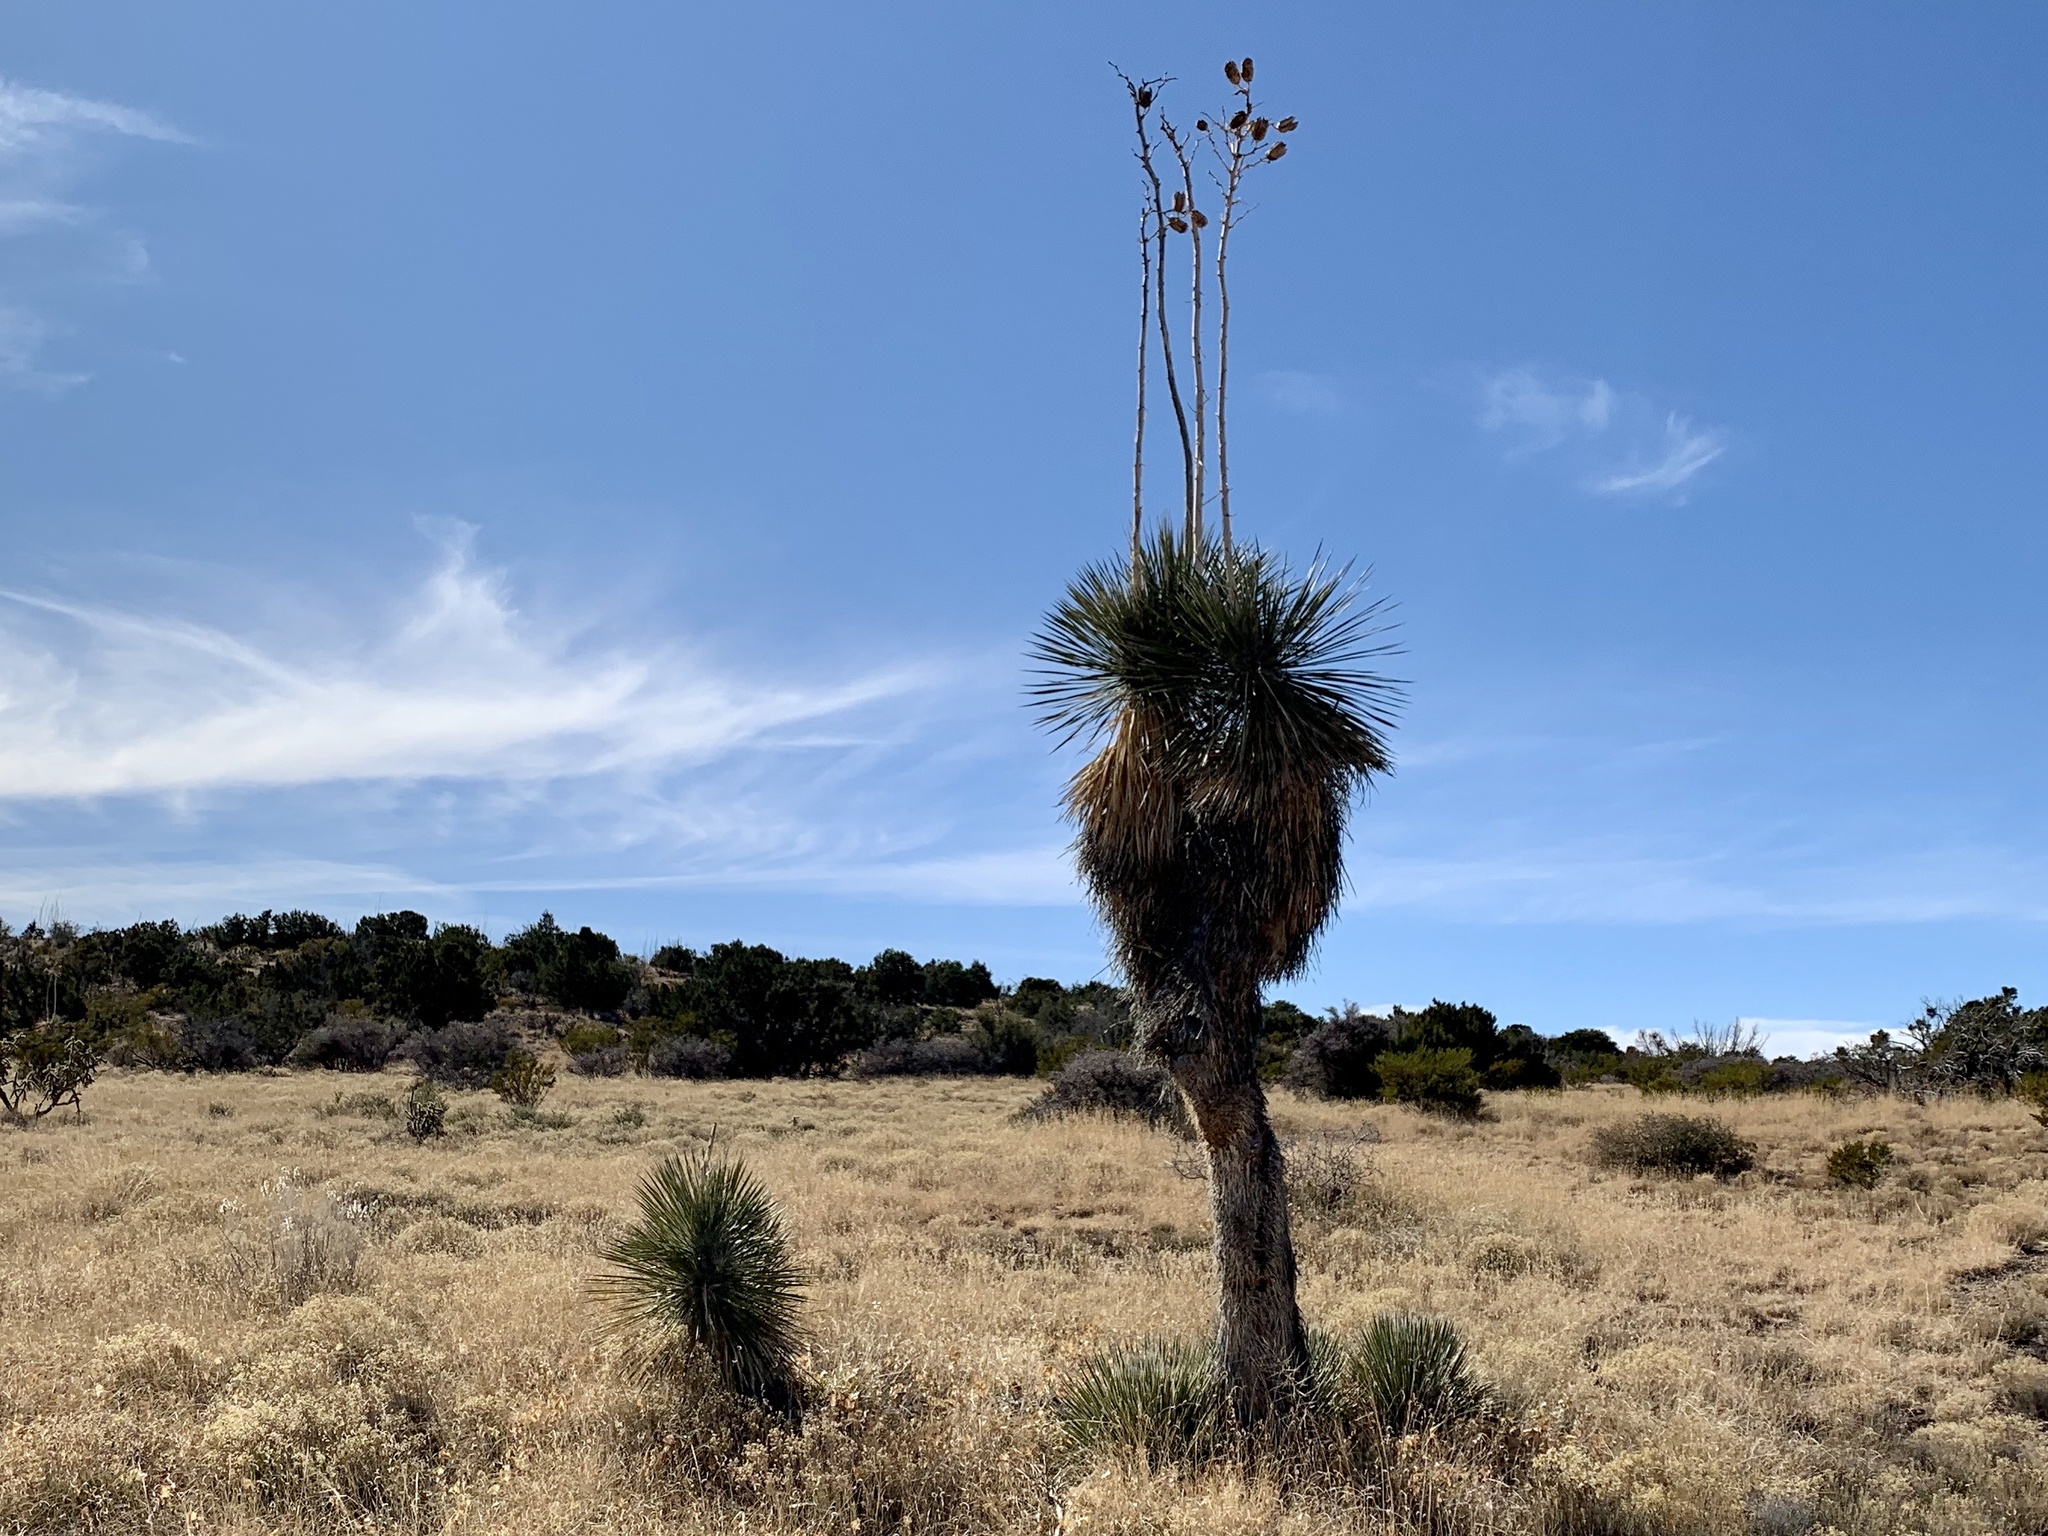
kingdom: Plantae
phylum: Tracheophyta
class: Liliopsida
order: Asparagales
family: Asparagaceae
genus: Yucca
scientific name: Yucca elata
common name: Palmella
